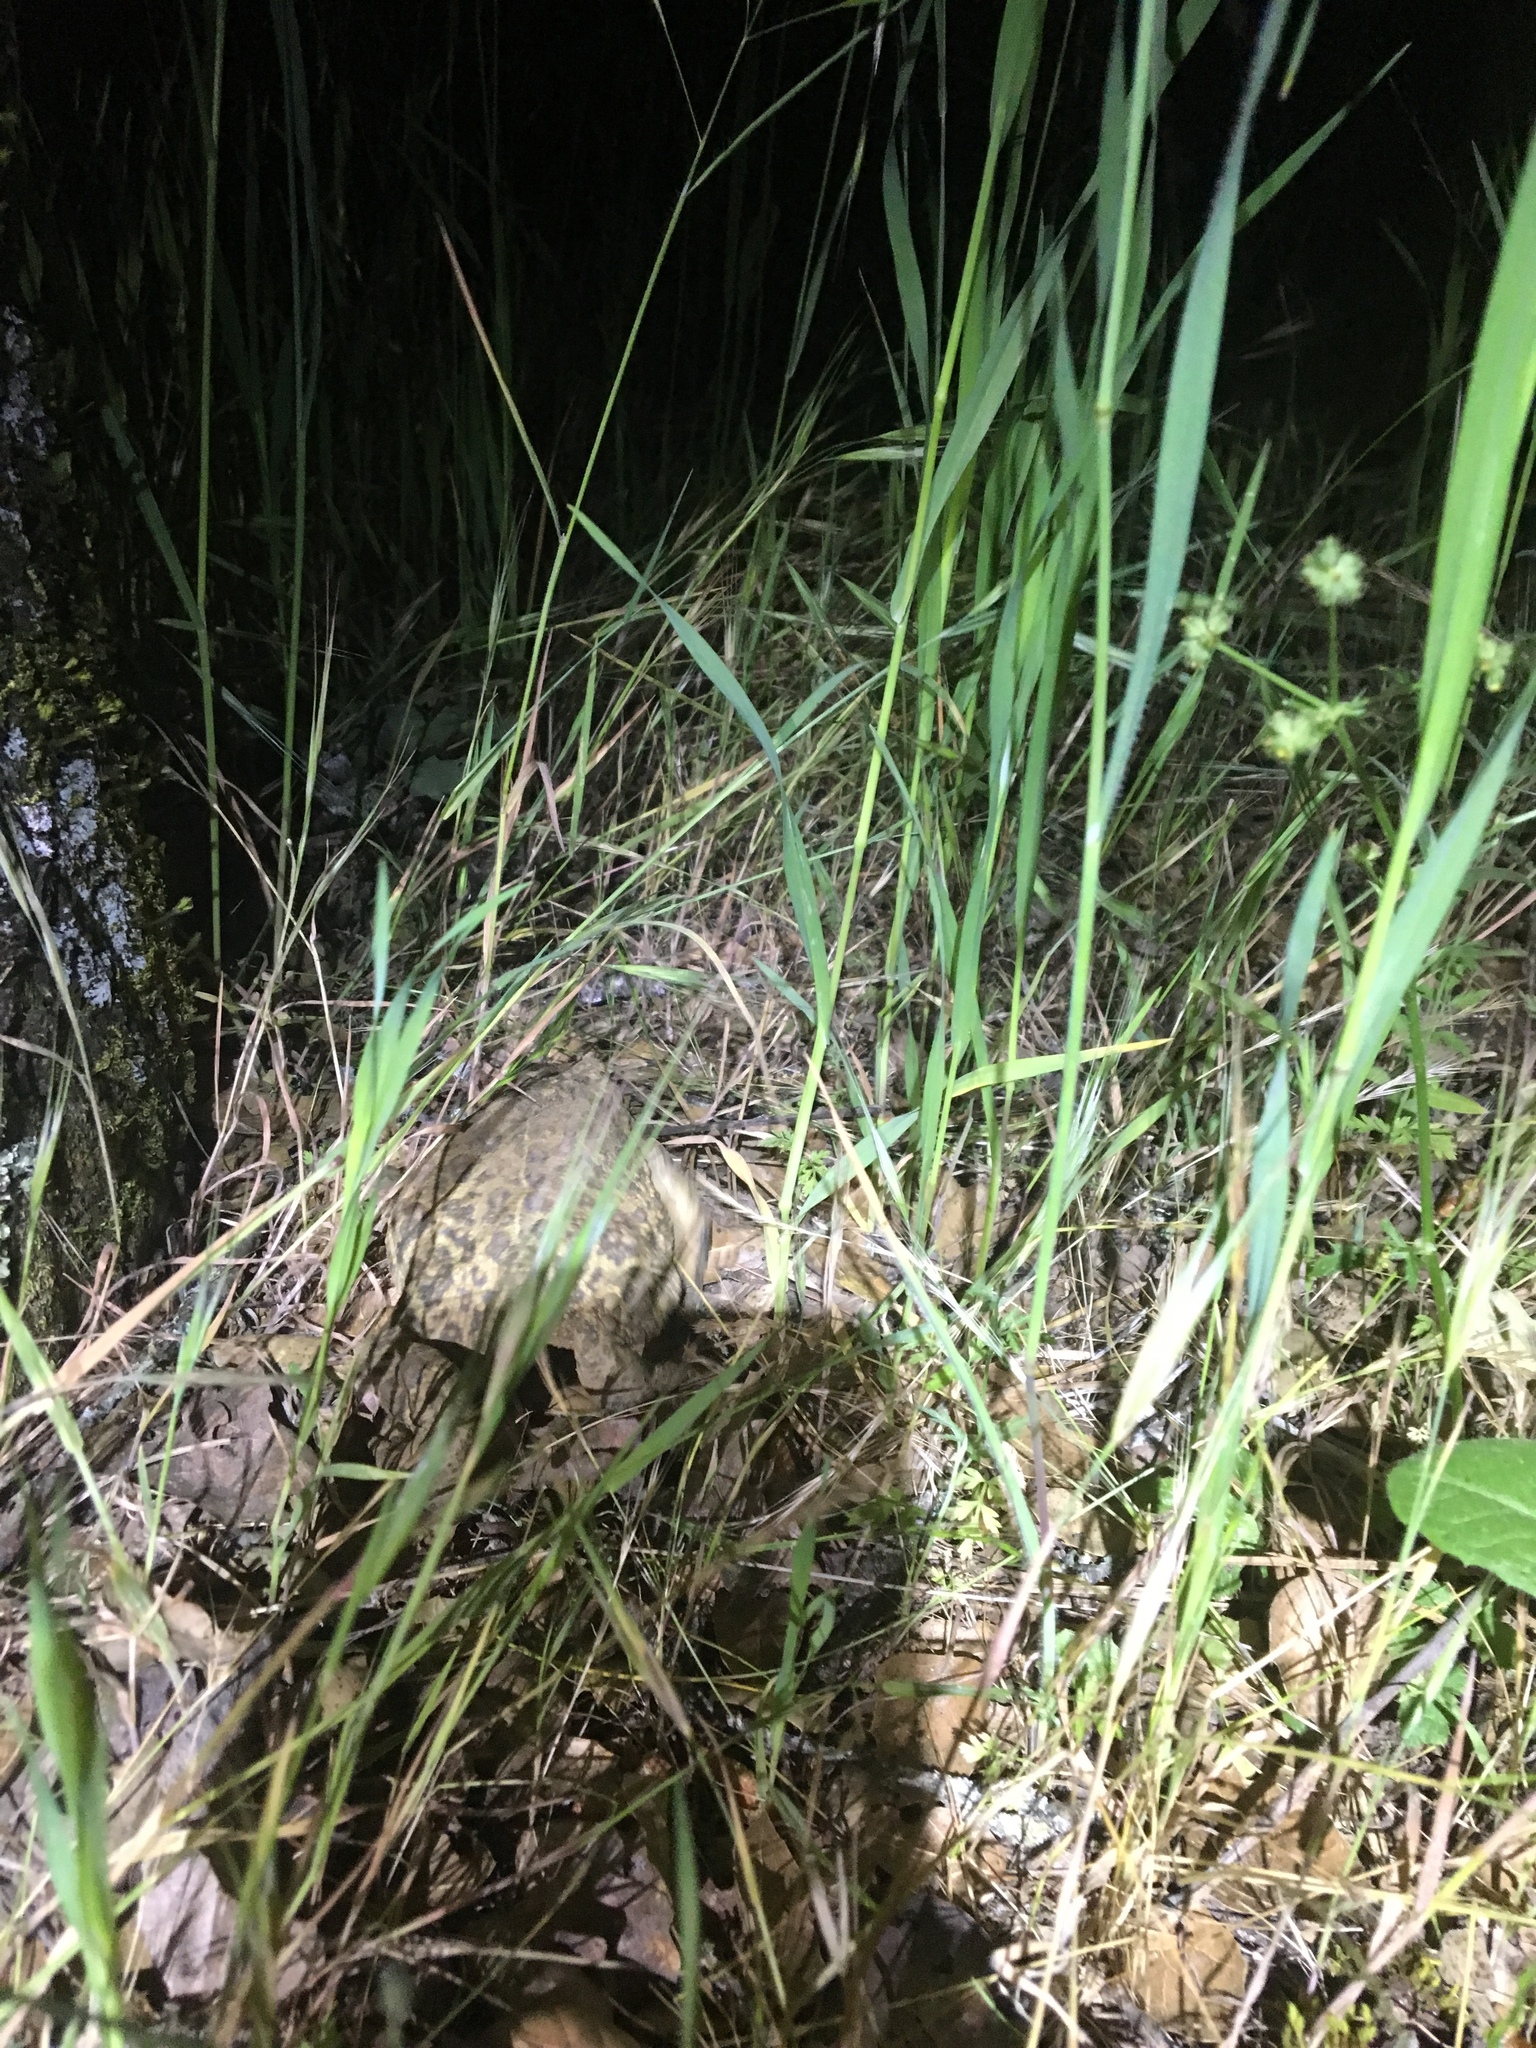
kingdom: Animalia
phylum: Chordata
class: Amphibia
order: Anura
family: Bufonidae
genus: Anaxyrus
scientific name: Anaxyrus boreas
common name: Western toad
